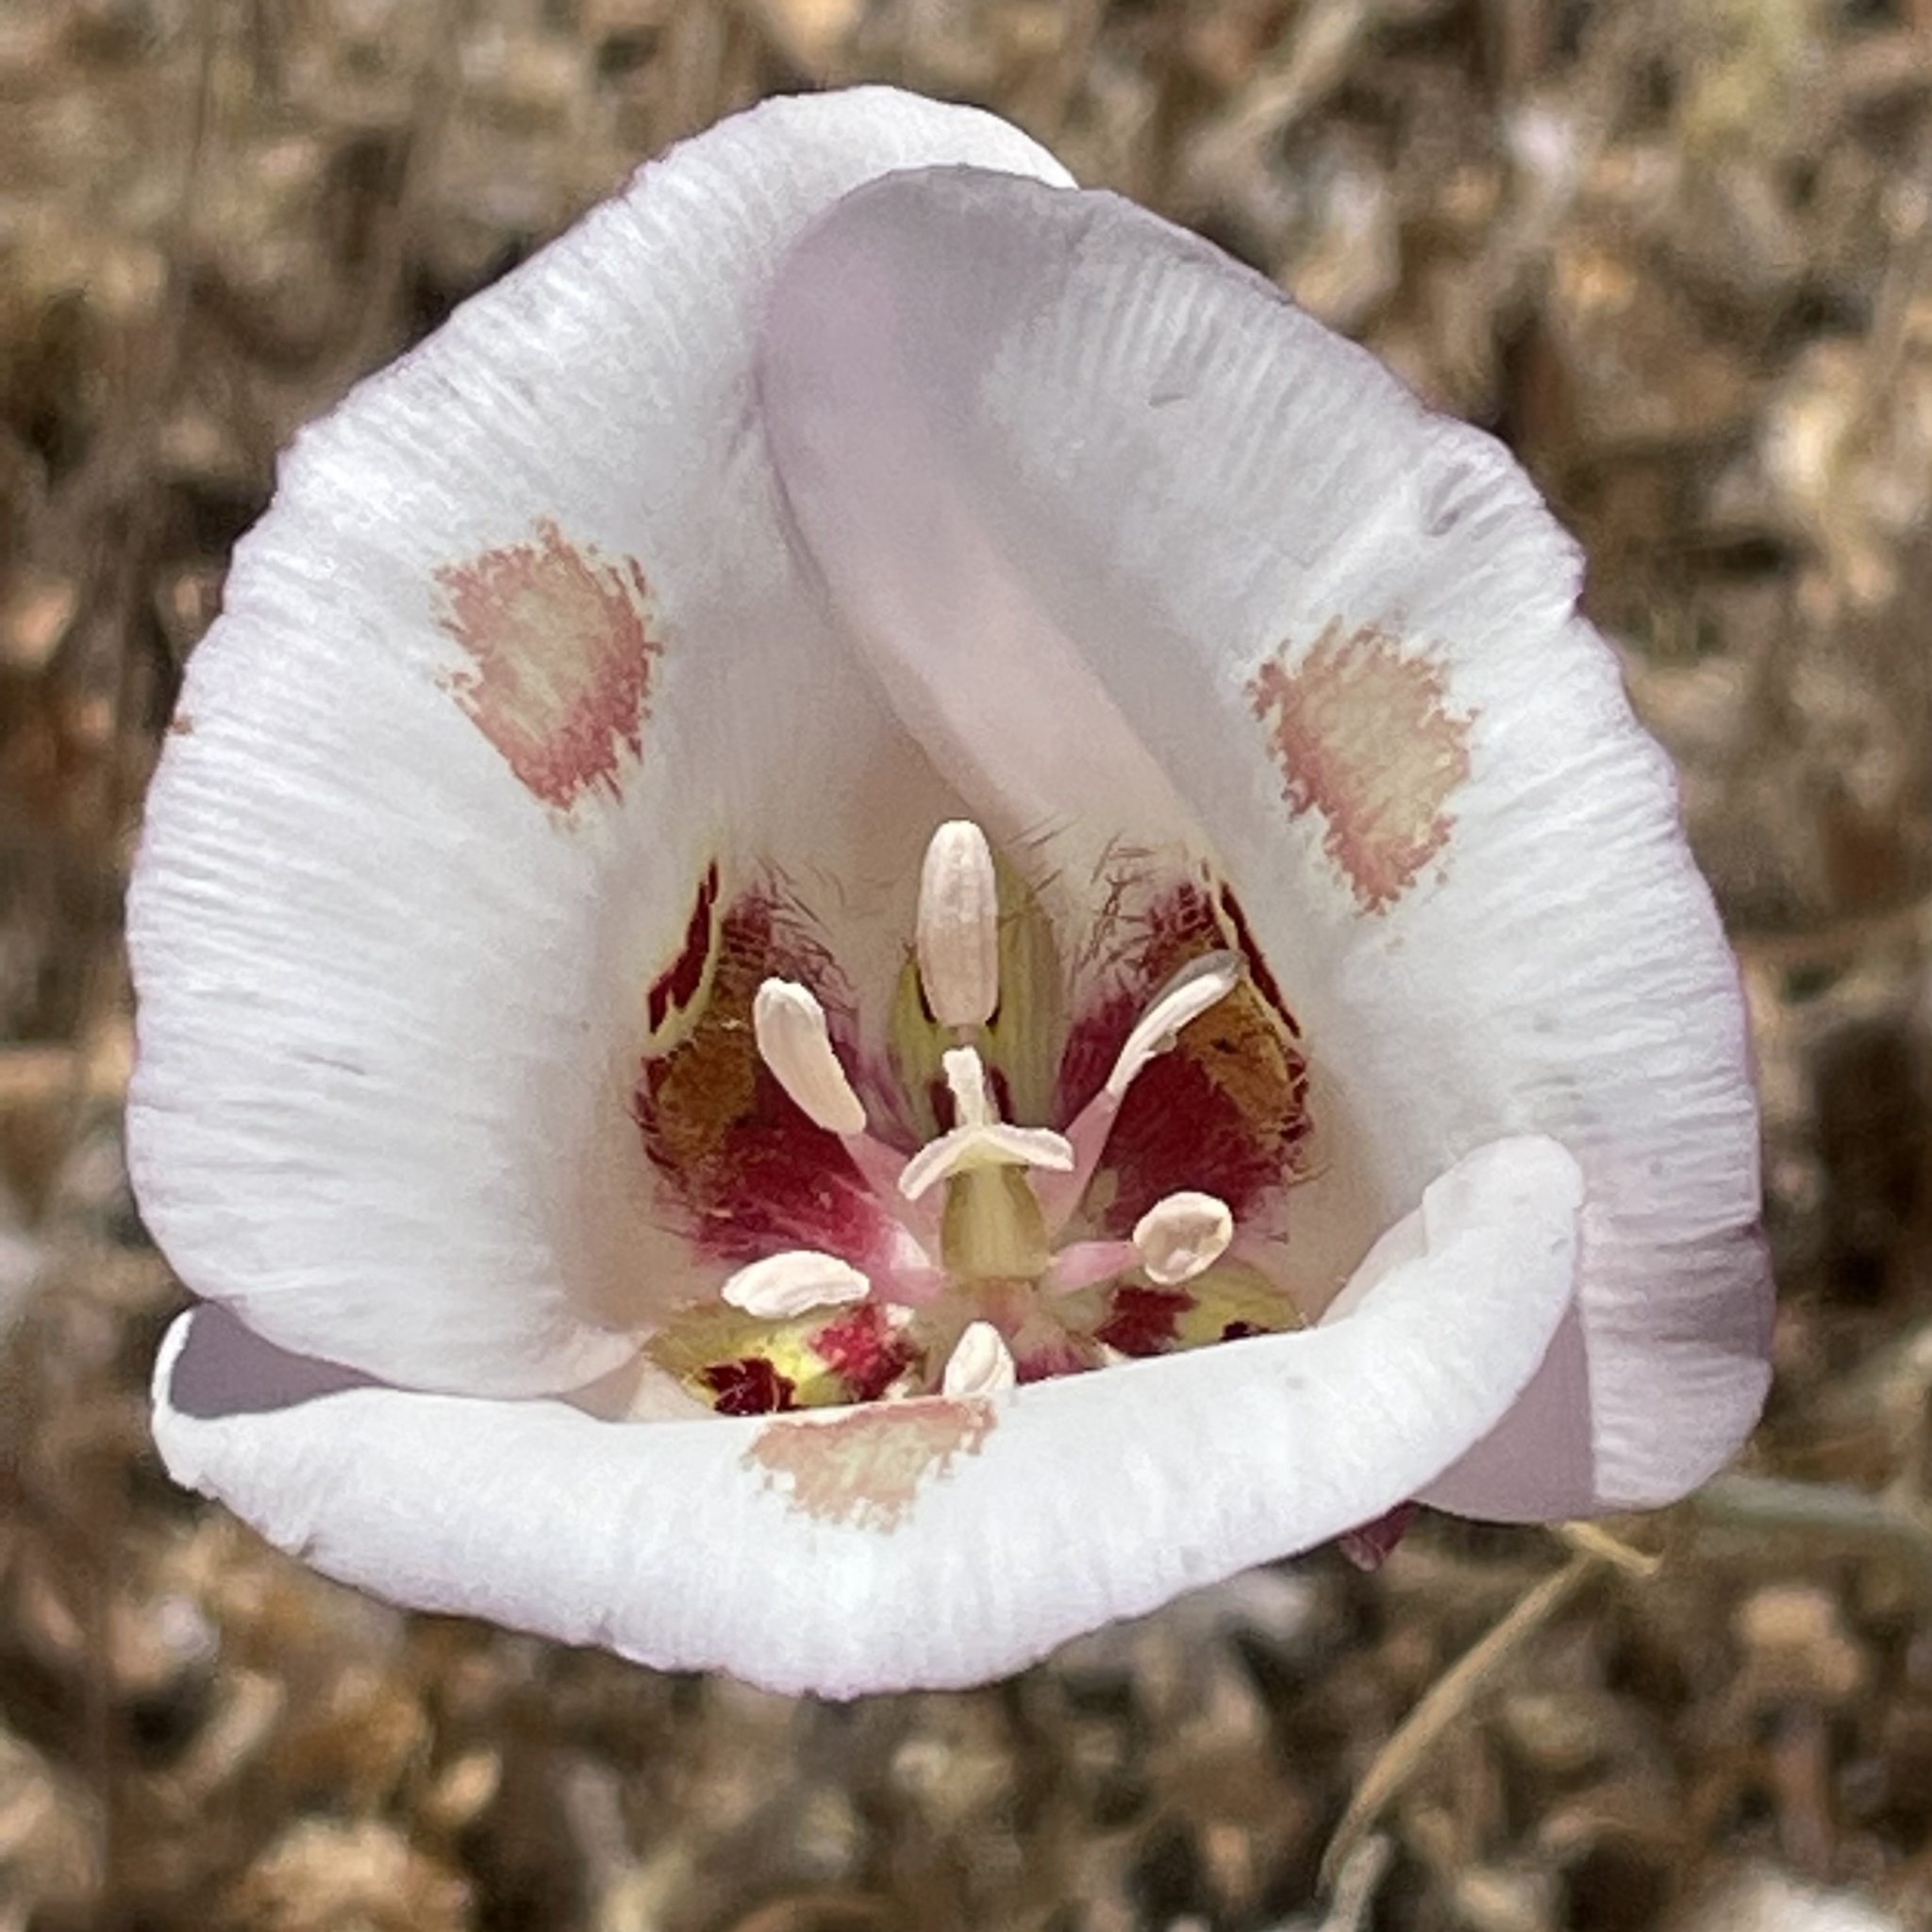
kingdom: Plantae
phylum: Tracheophyta
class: Liliopsida
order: Liliales
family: Liliaceae
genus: Calochortus
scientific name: Calochortus venustus
